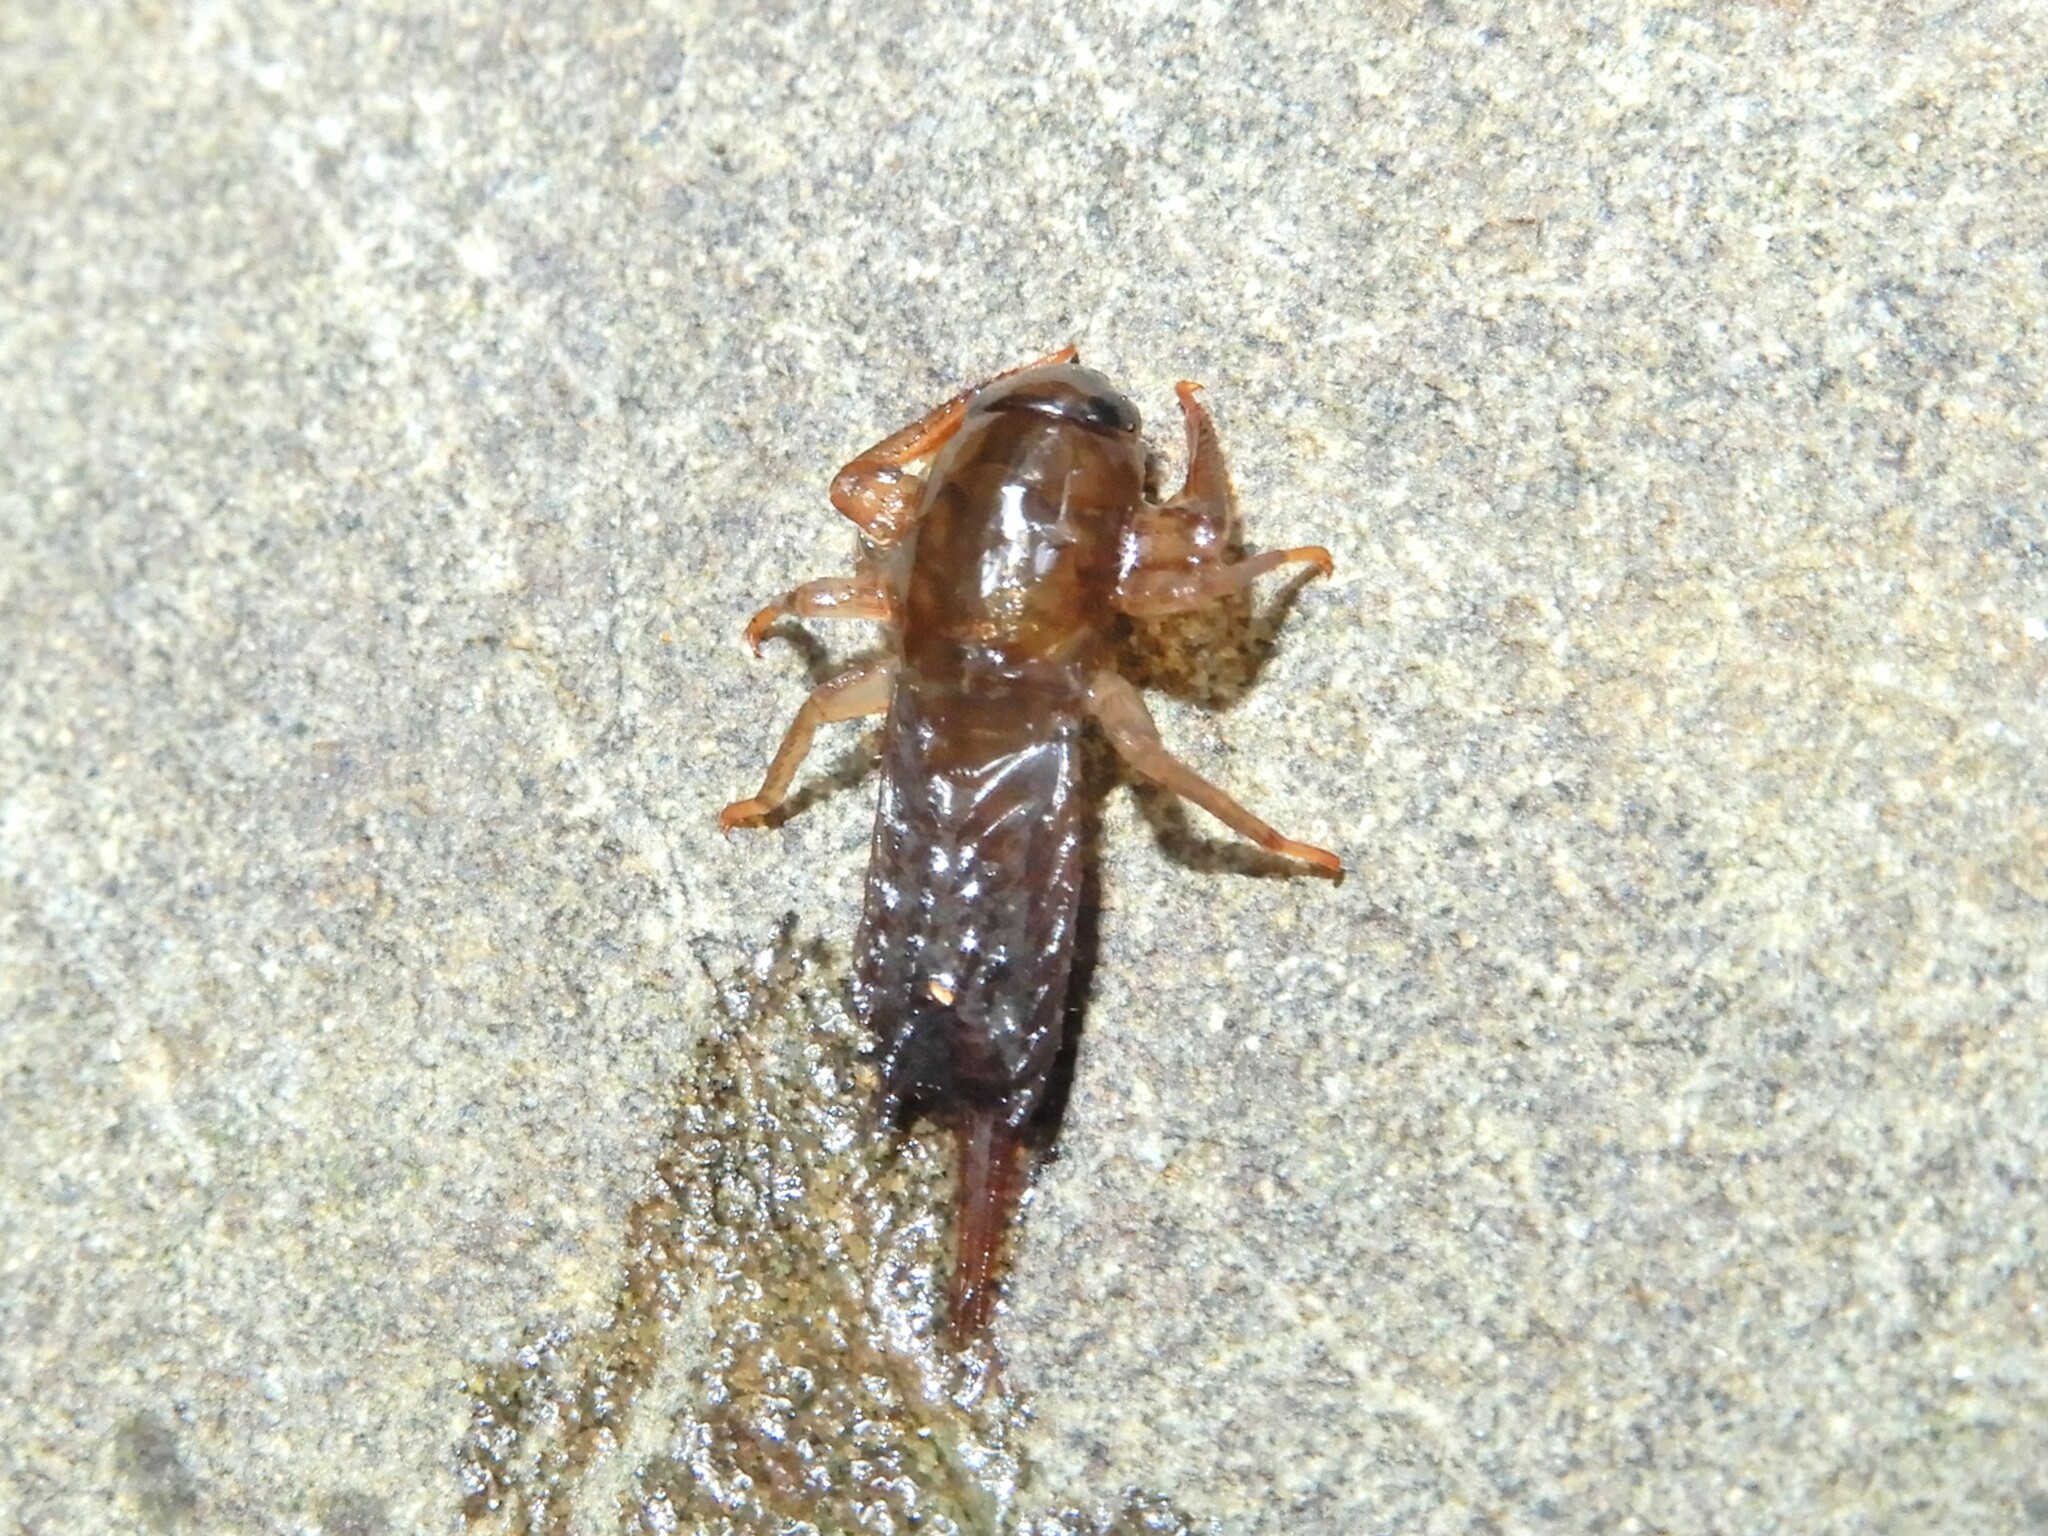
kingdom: Animalia
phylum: Arthropoda
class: Insecta
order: Ephemeroptera
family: Coloburiscidae
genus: Coloburiscus
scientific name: Coloburiscus humeralis
